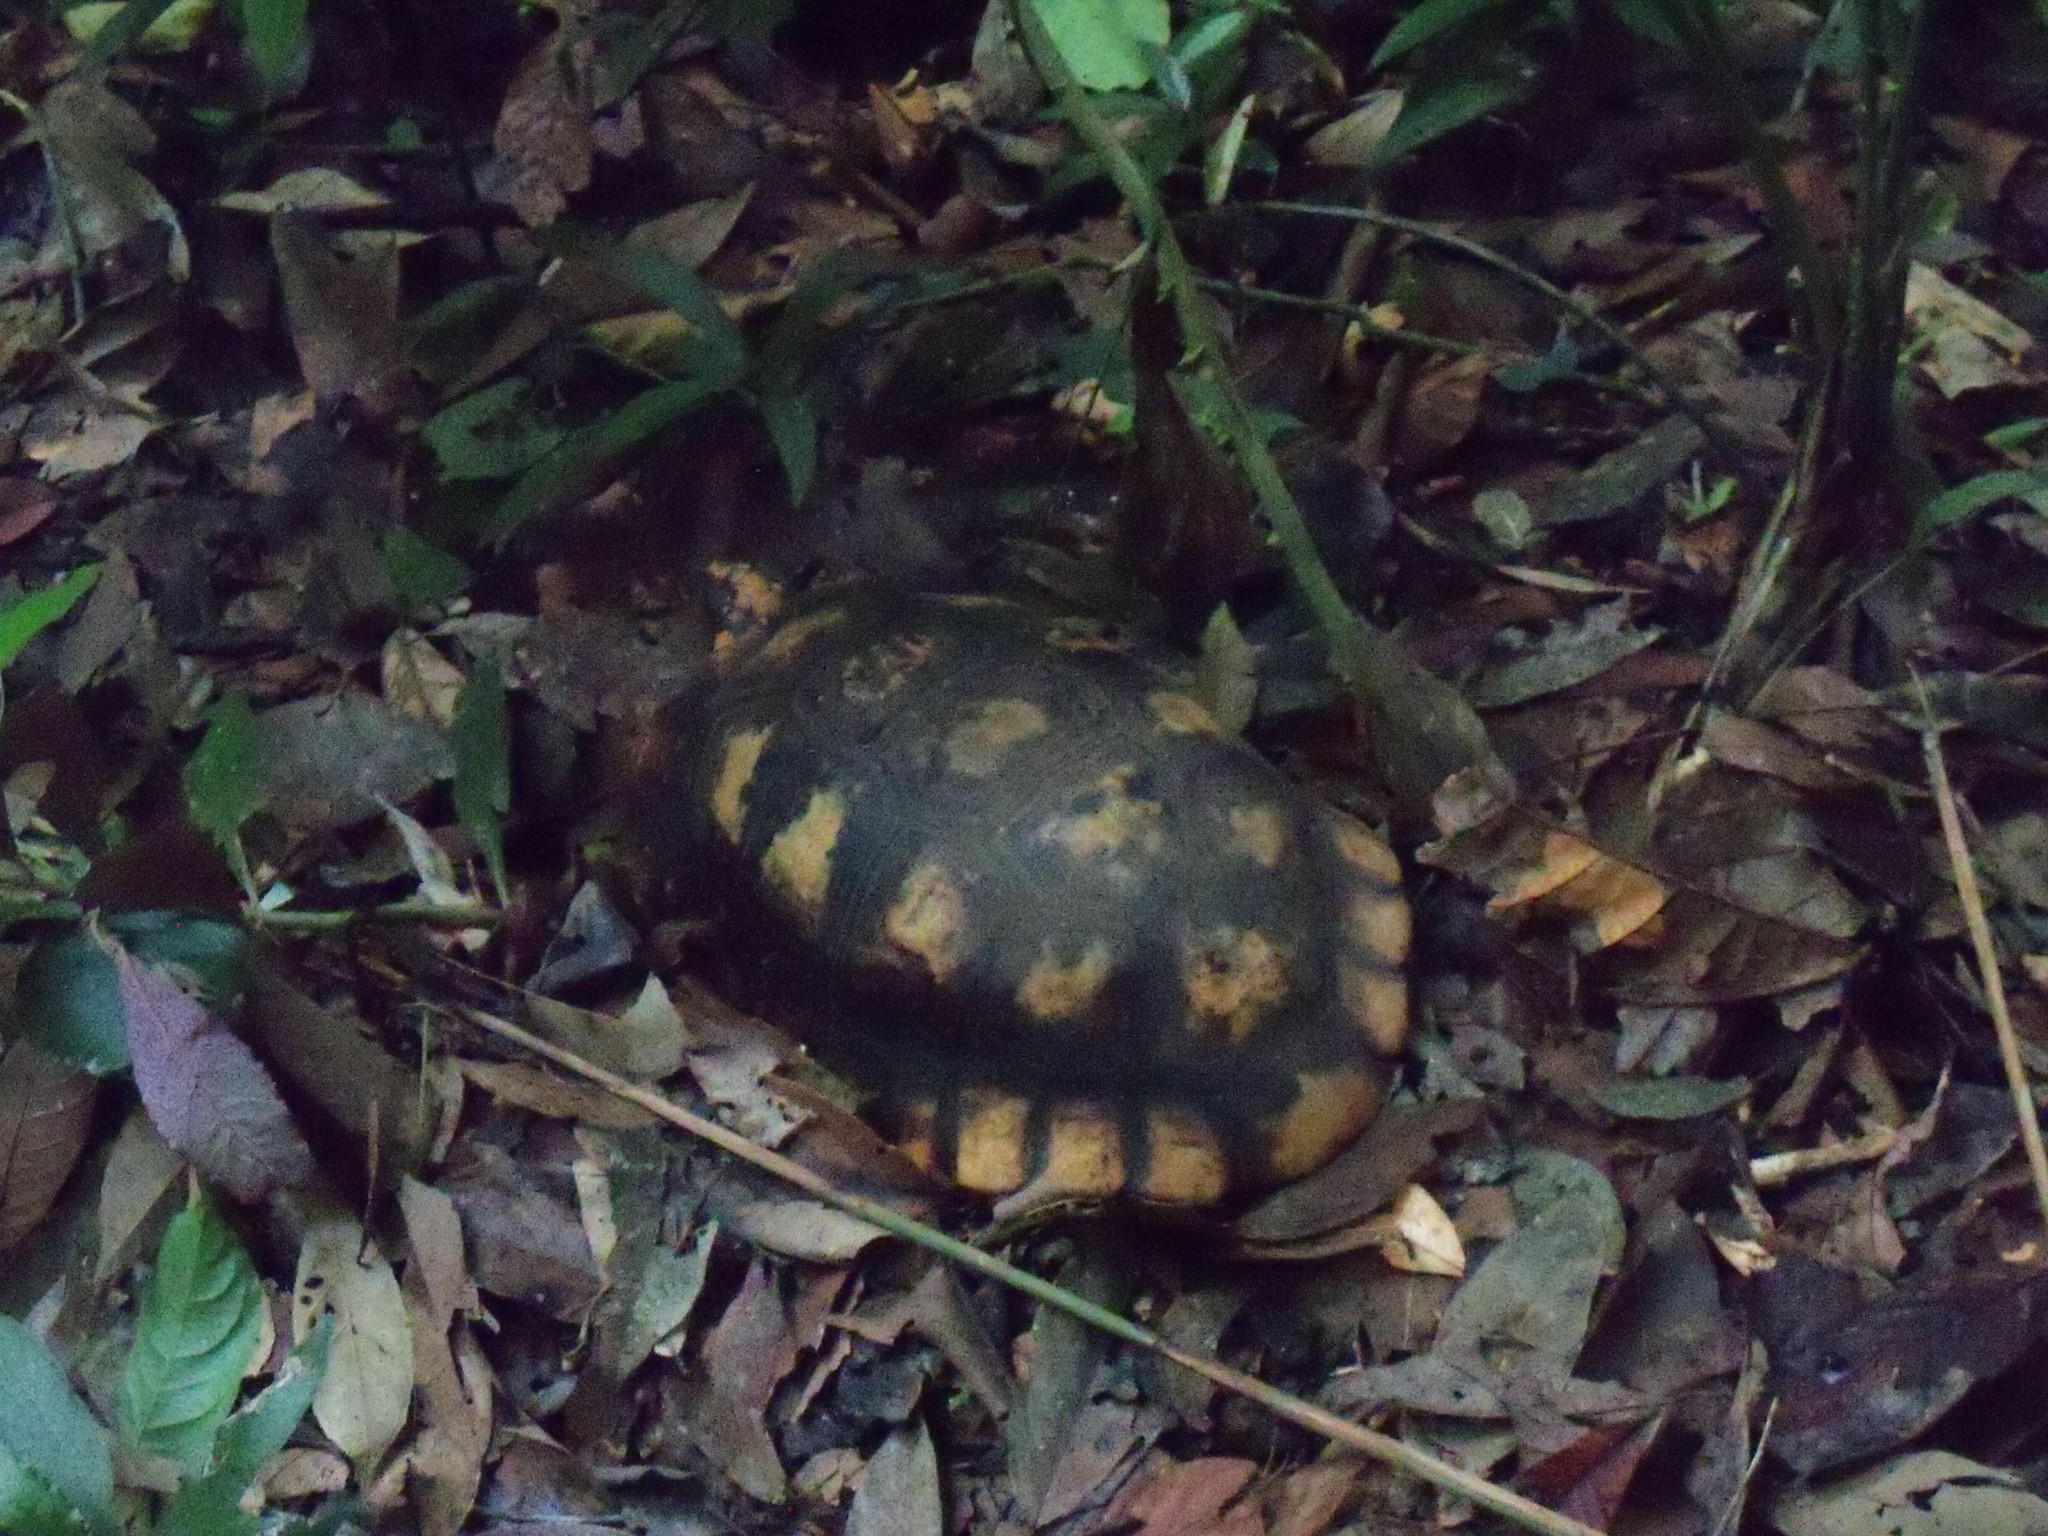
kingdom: Animalia
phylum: Chordata
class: Testudines
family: Testudinidae
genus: Chelonoidis
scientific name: Chelonoidis denticulatus
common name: Yellow-footed tortoise
